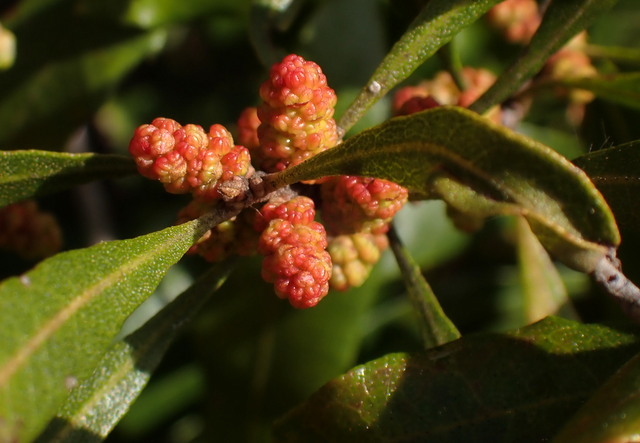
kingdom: Plantae
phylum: Tracheophyta
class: Magnoliopsida
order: Fagales
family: Myricaceae
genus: Morella
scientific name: Morella cerifera
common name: Wax myrtle
